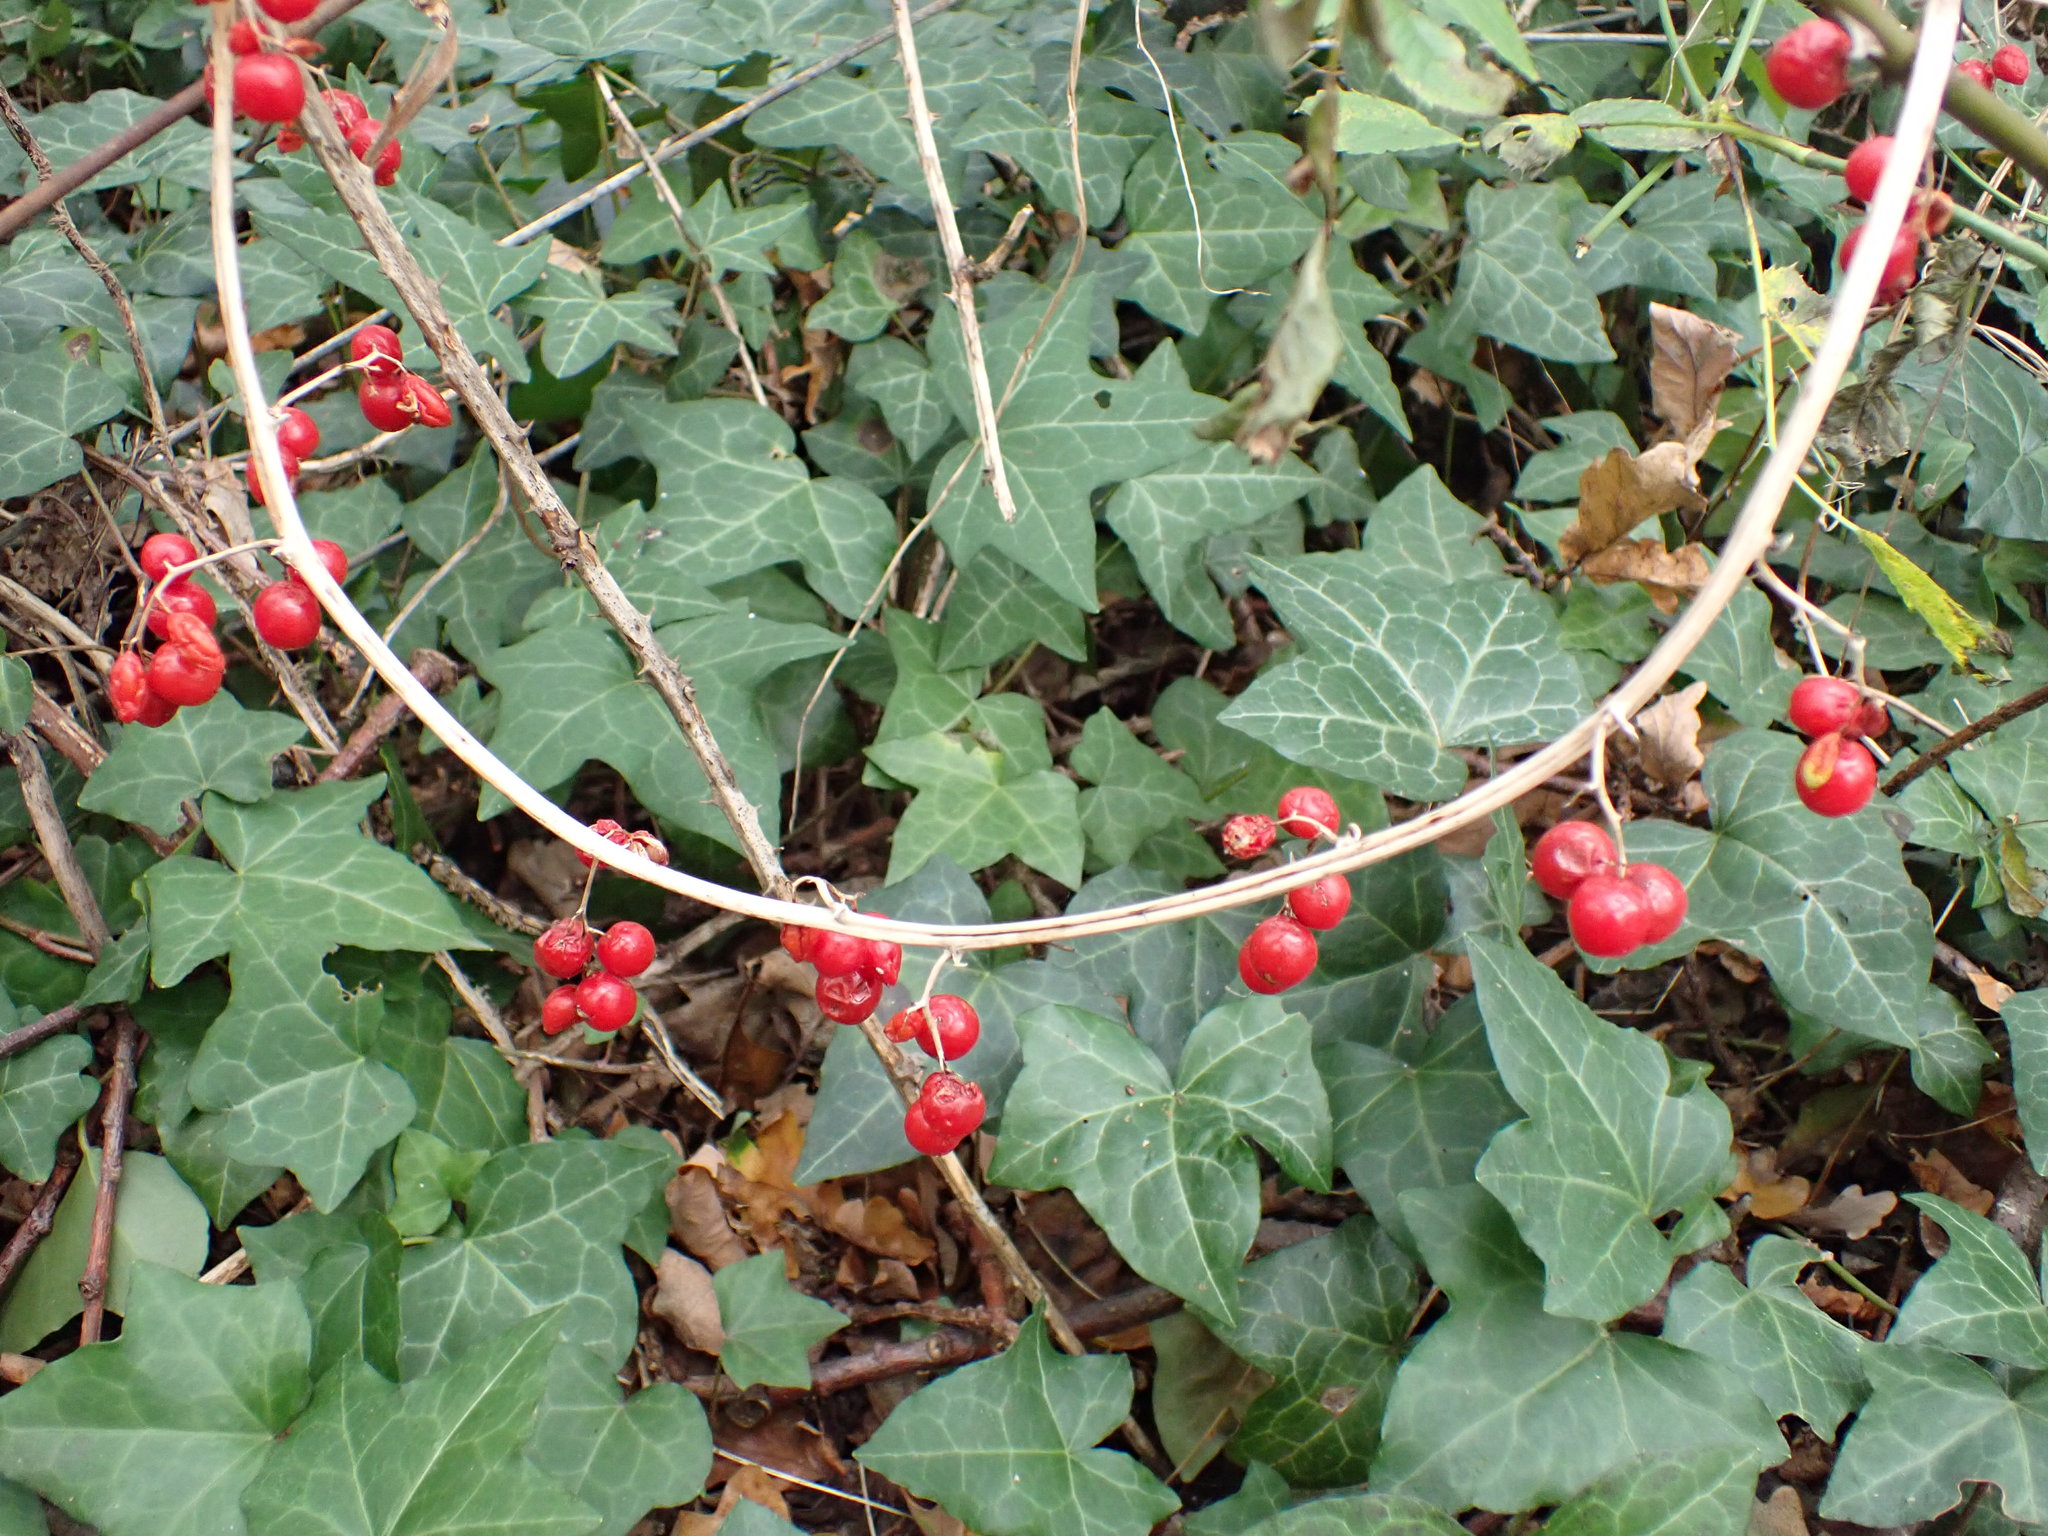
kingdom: Plantae
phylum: Tracheophyta
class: Liliopsida
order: Dioscoreales
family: Dioscoreaceae
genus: Dioscorea
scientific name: Dioscorea communis
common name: Black-bindweed
